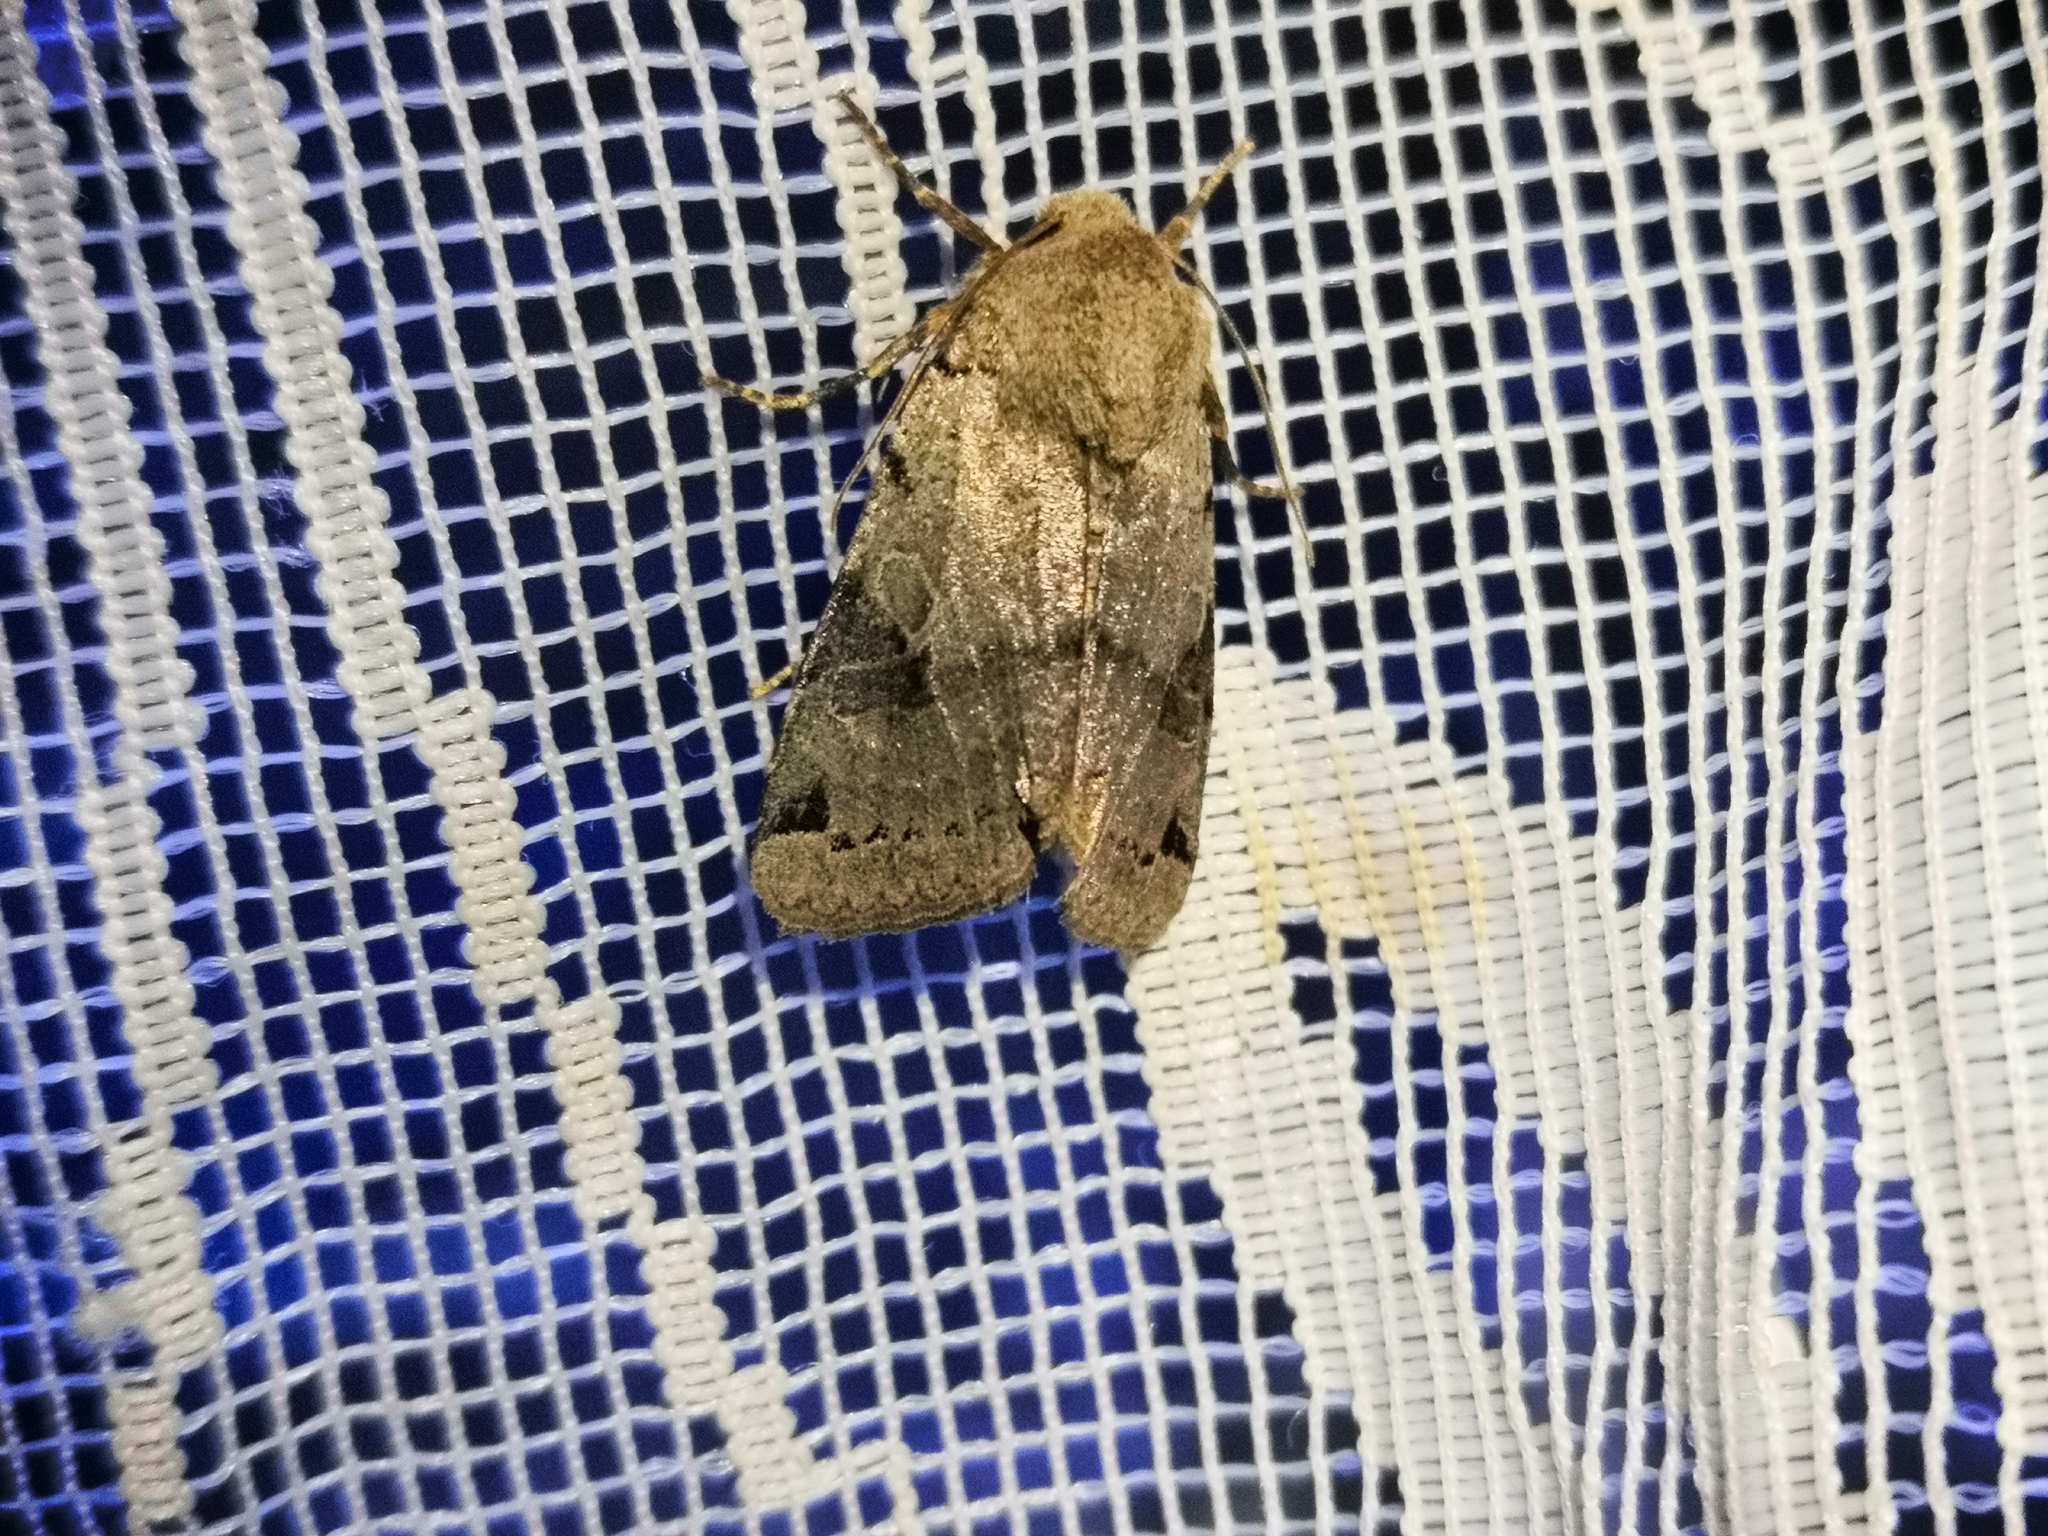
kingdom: Animalia
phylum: Arthropoda
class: Insecta
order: Lepidoptera
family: Noctuidae
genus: Agrochola
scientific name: Agrochola litura
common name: Brown-spot pinion
